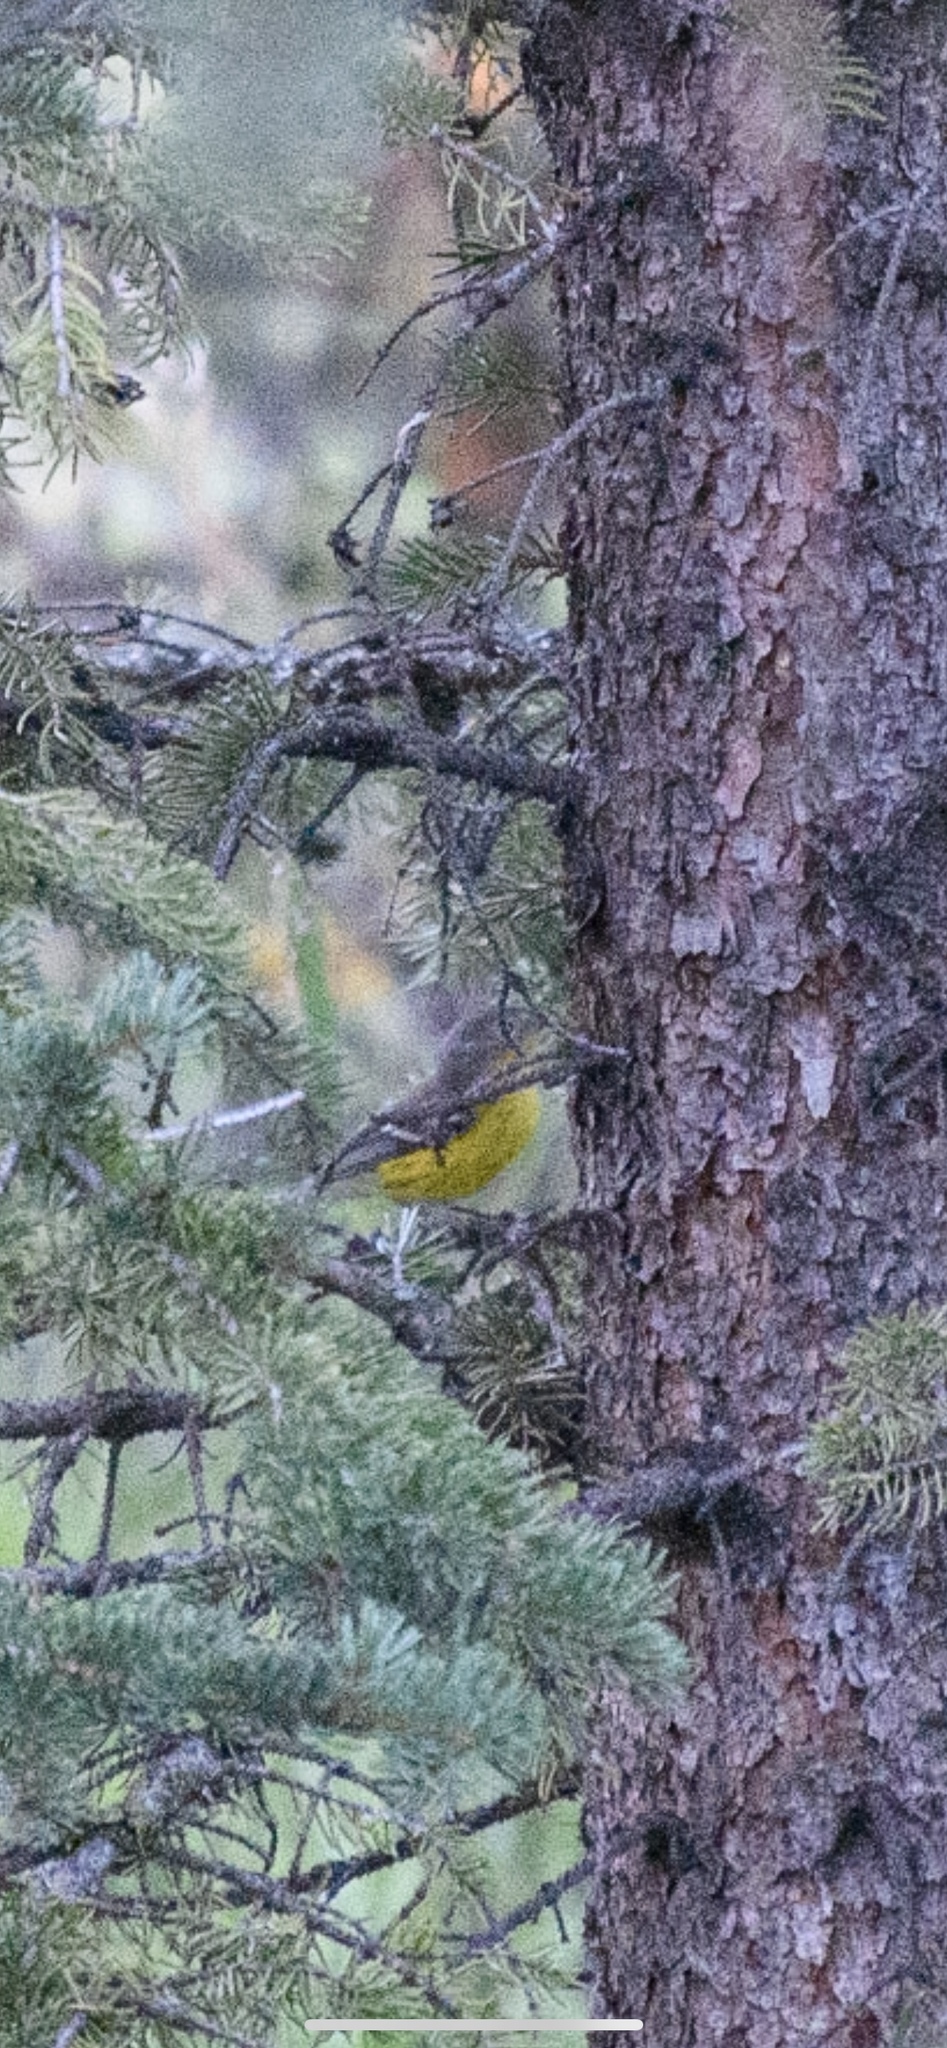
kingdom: Animalia
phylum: Chordata
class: Aves
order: Passeriformes
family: Parulidae
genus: Setophaga
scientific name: Setophaga magnolia
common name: Magnolia warbler
